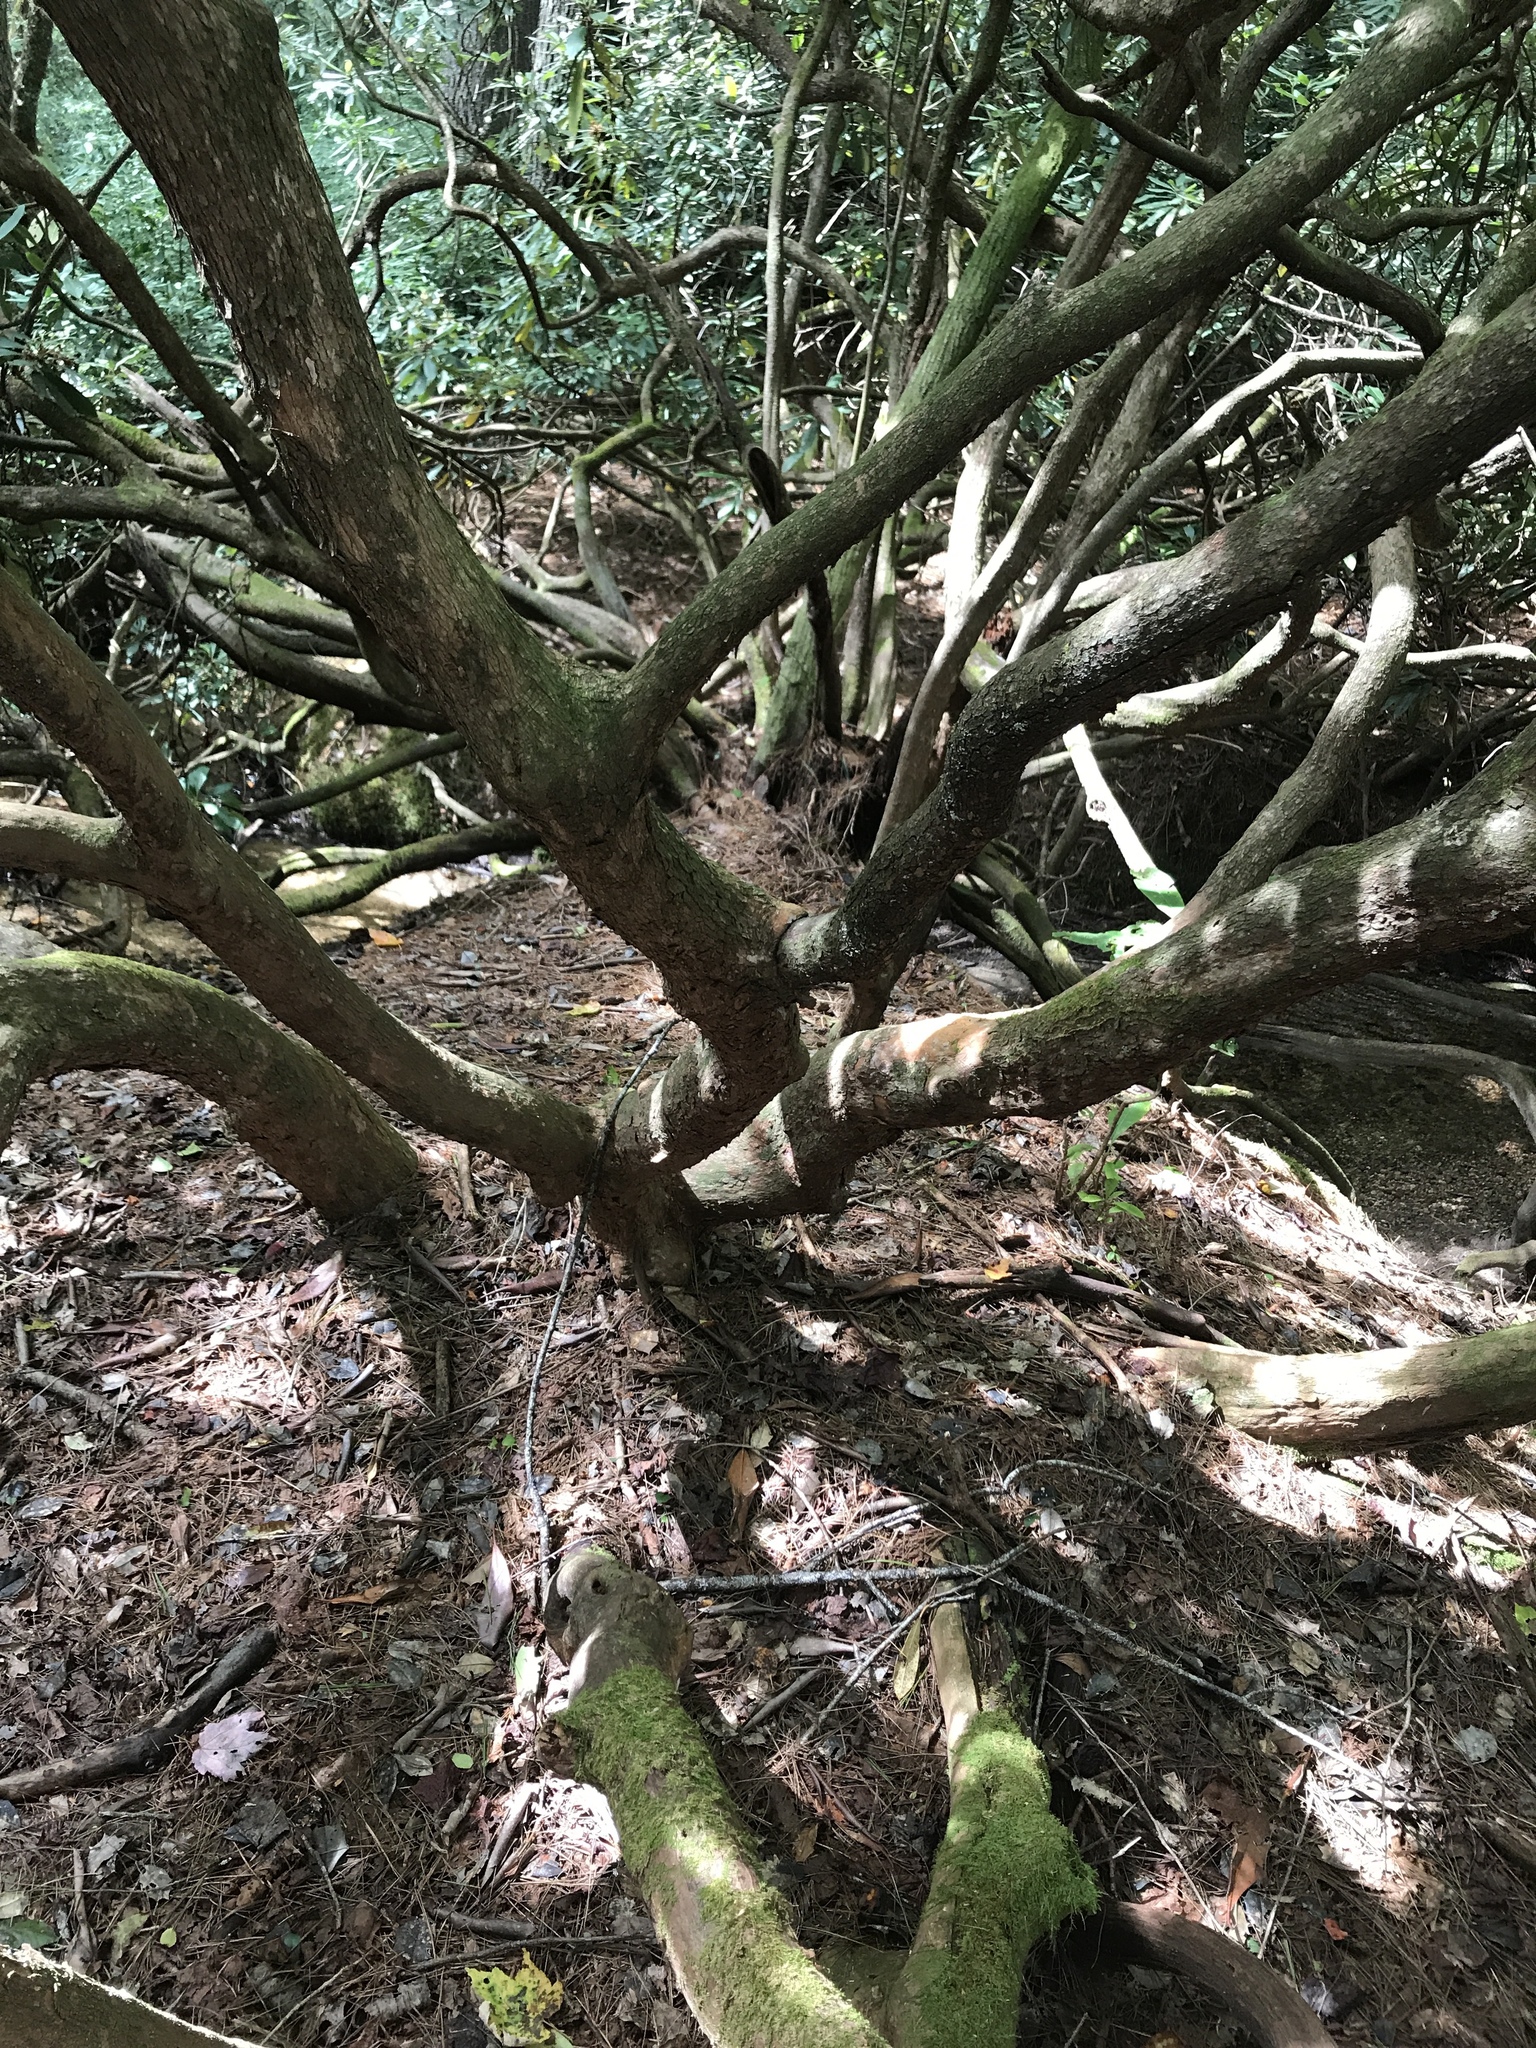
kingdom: Plantae
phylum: Tracheophyta
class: Magnoliopsida
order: Ericales
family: Ericaceae
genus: Rhododendron
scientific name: Rhododendron maximum
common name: Great rhododendron
